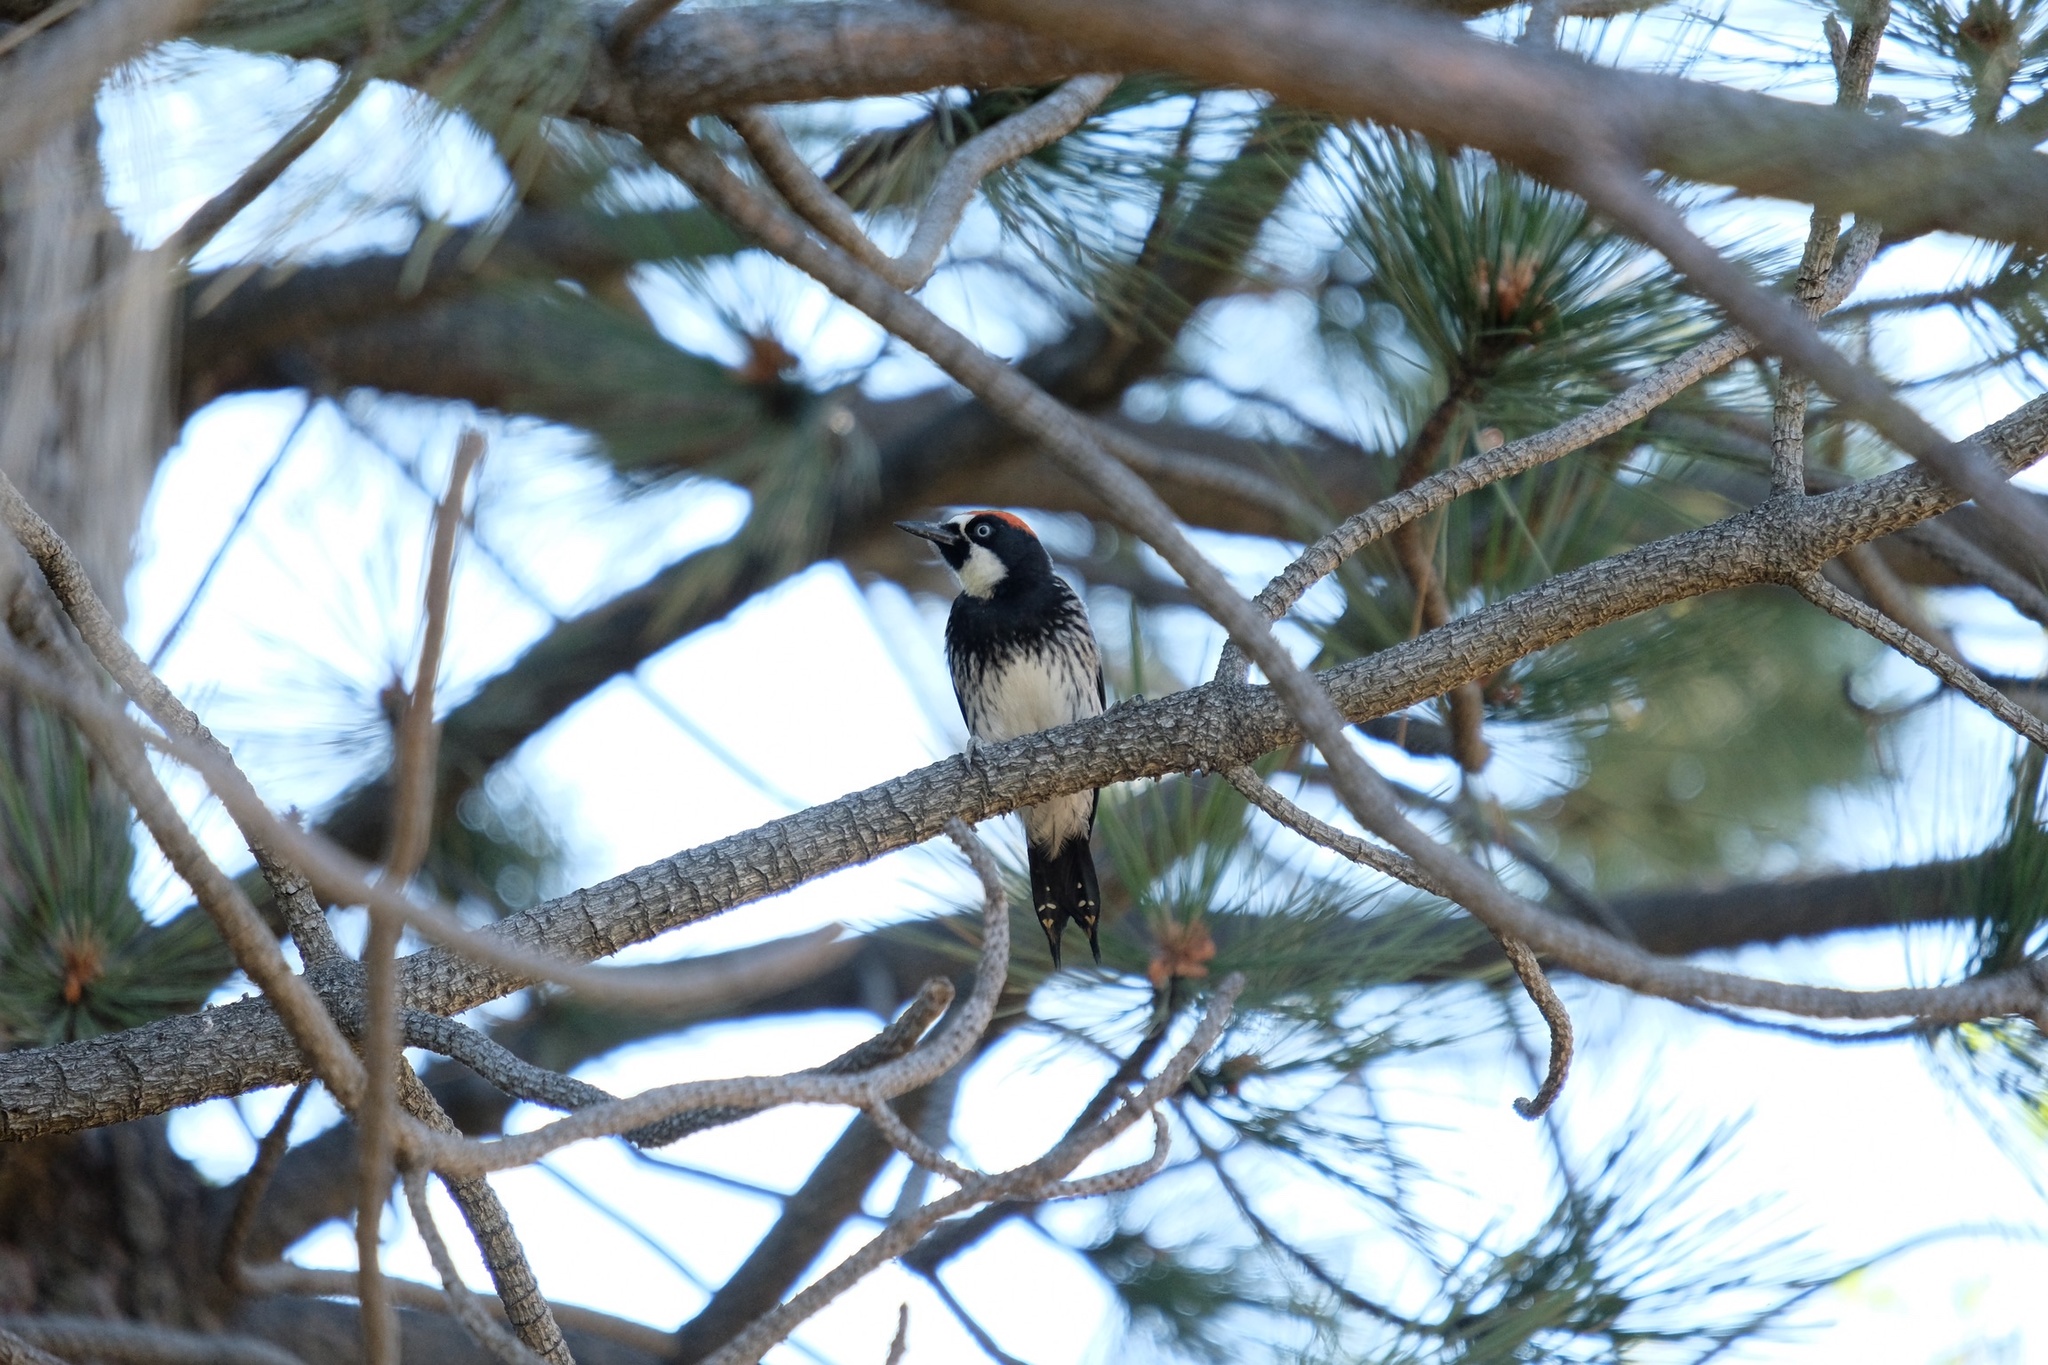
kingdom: Animalia
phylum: Chordata
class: Aves
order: Piciformes
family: Picidae
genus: Melanerpes
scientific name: Melanerpes formicivorus
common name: Acorn woodpecker
